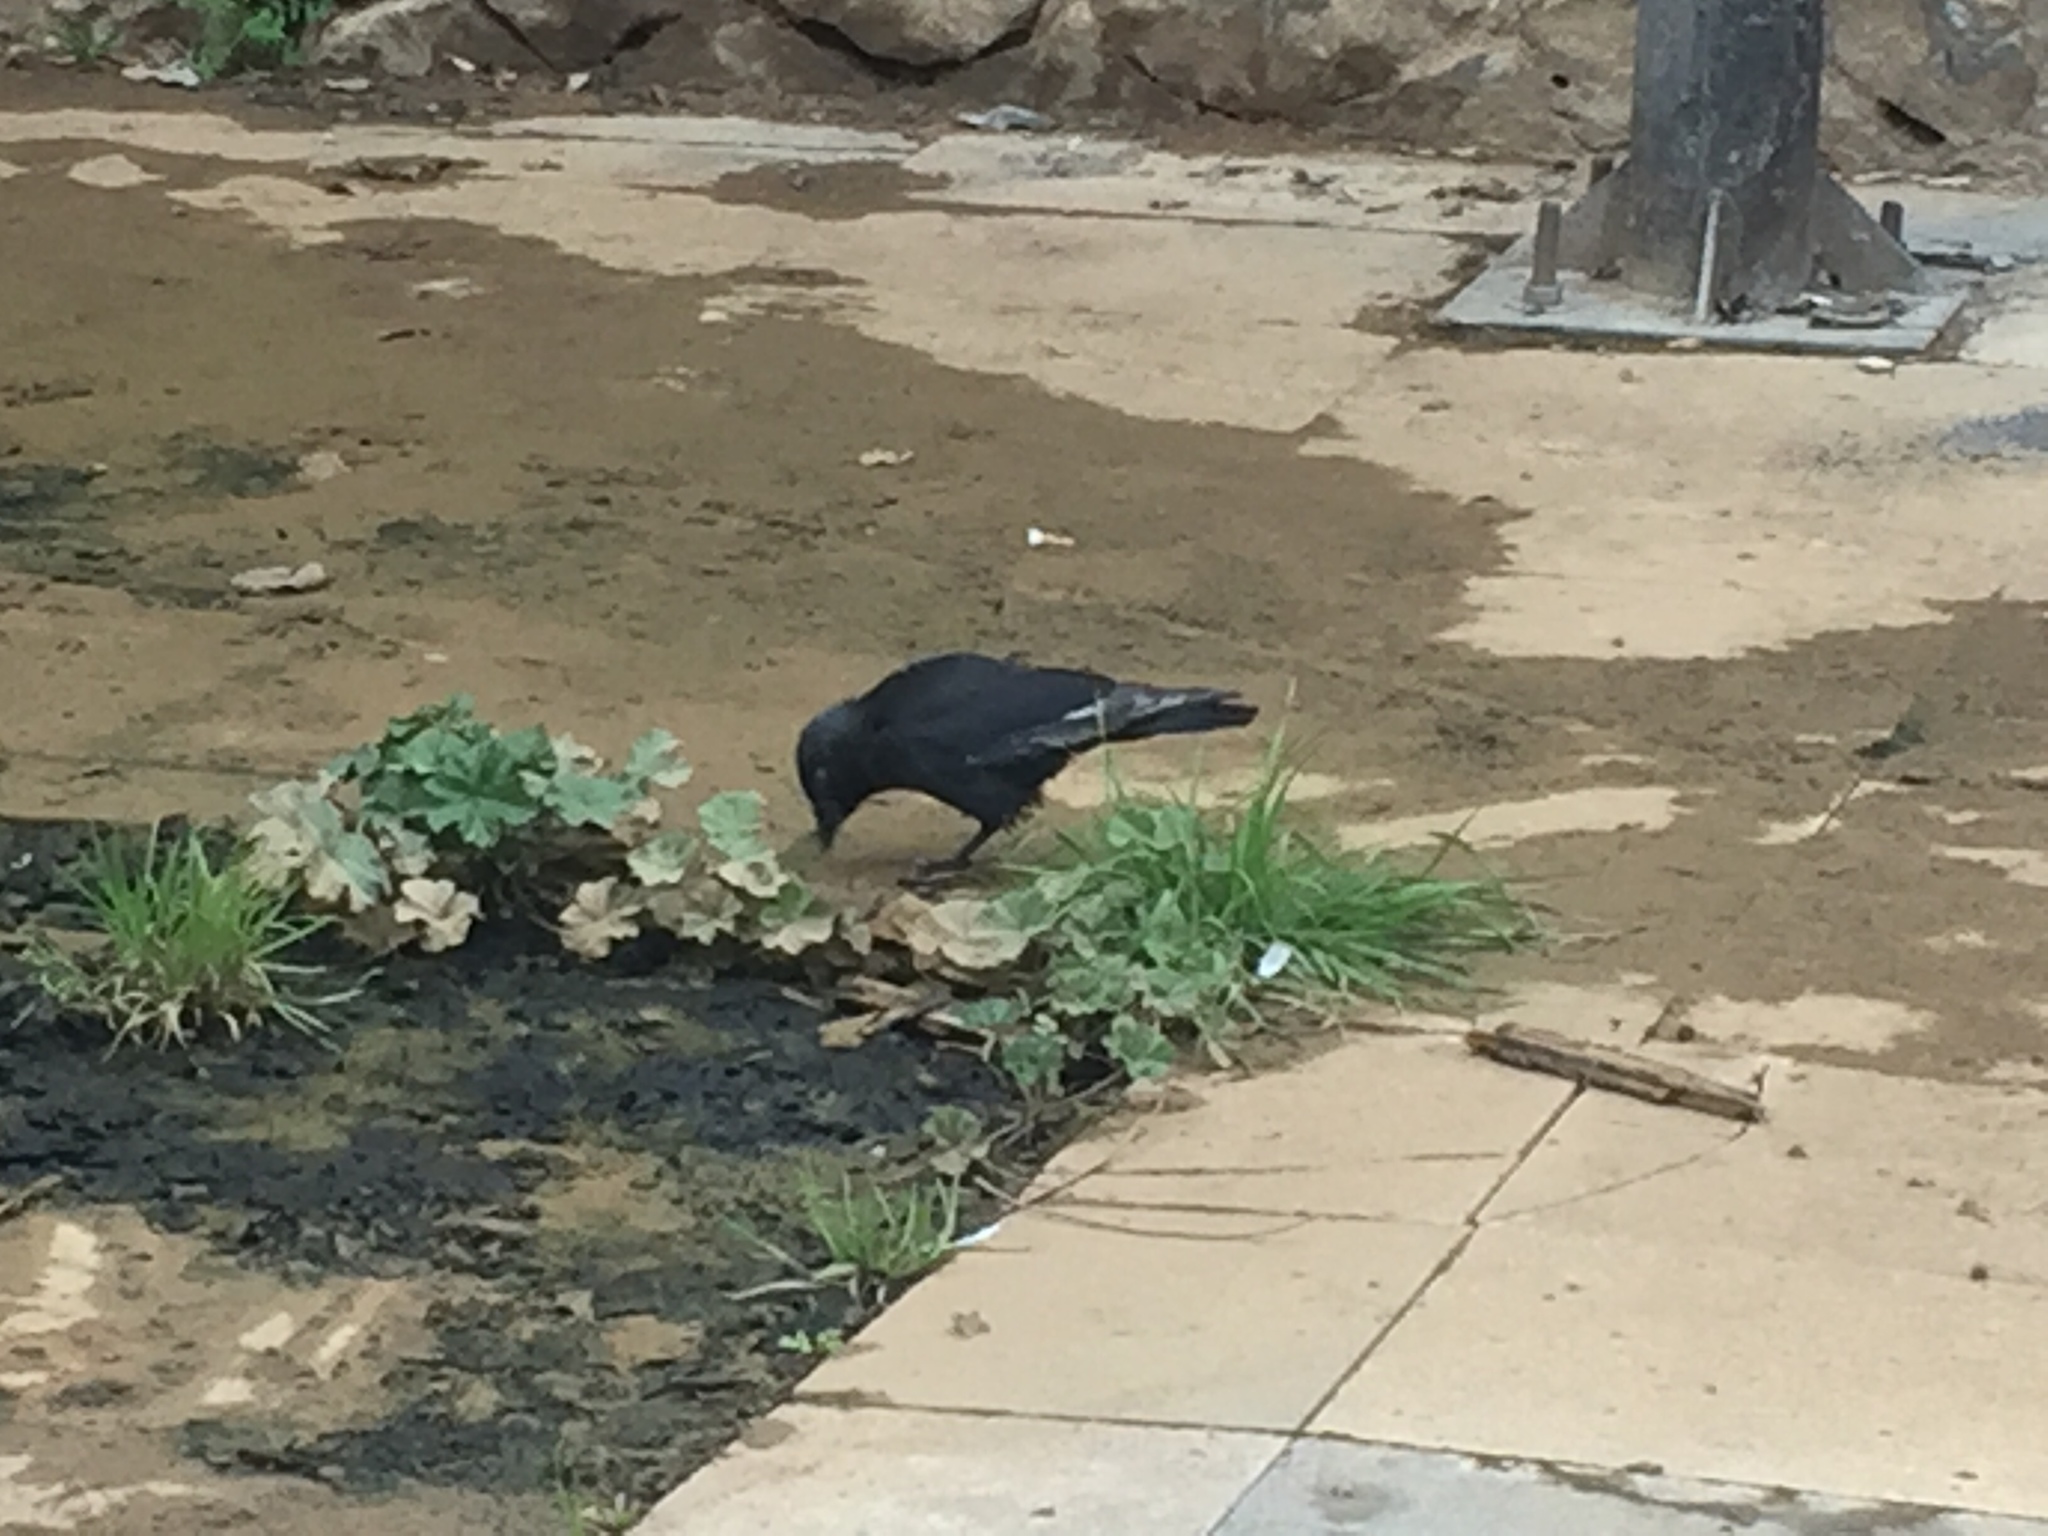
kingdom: Animalia
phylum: Chordata
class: Aves
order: Passeriformes
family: Corvidae
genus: Coloeus
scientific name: Coloeus monedula
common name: Western jackdaw
